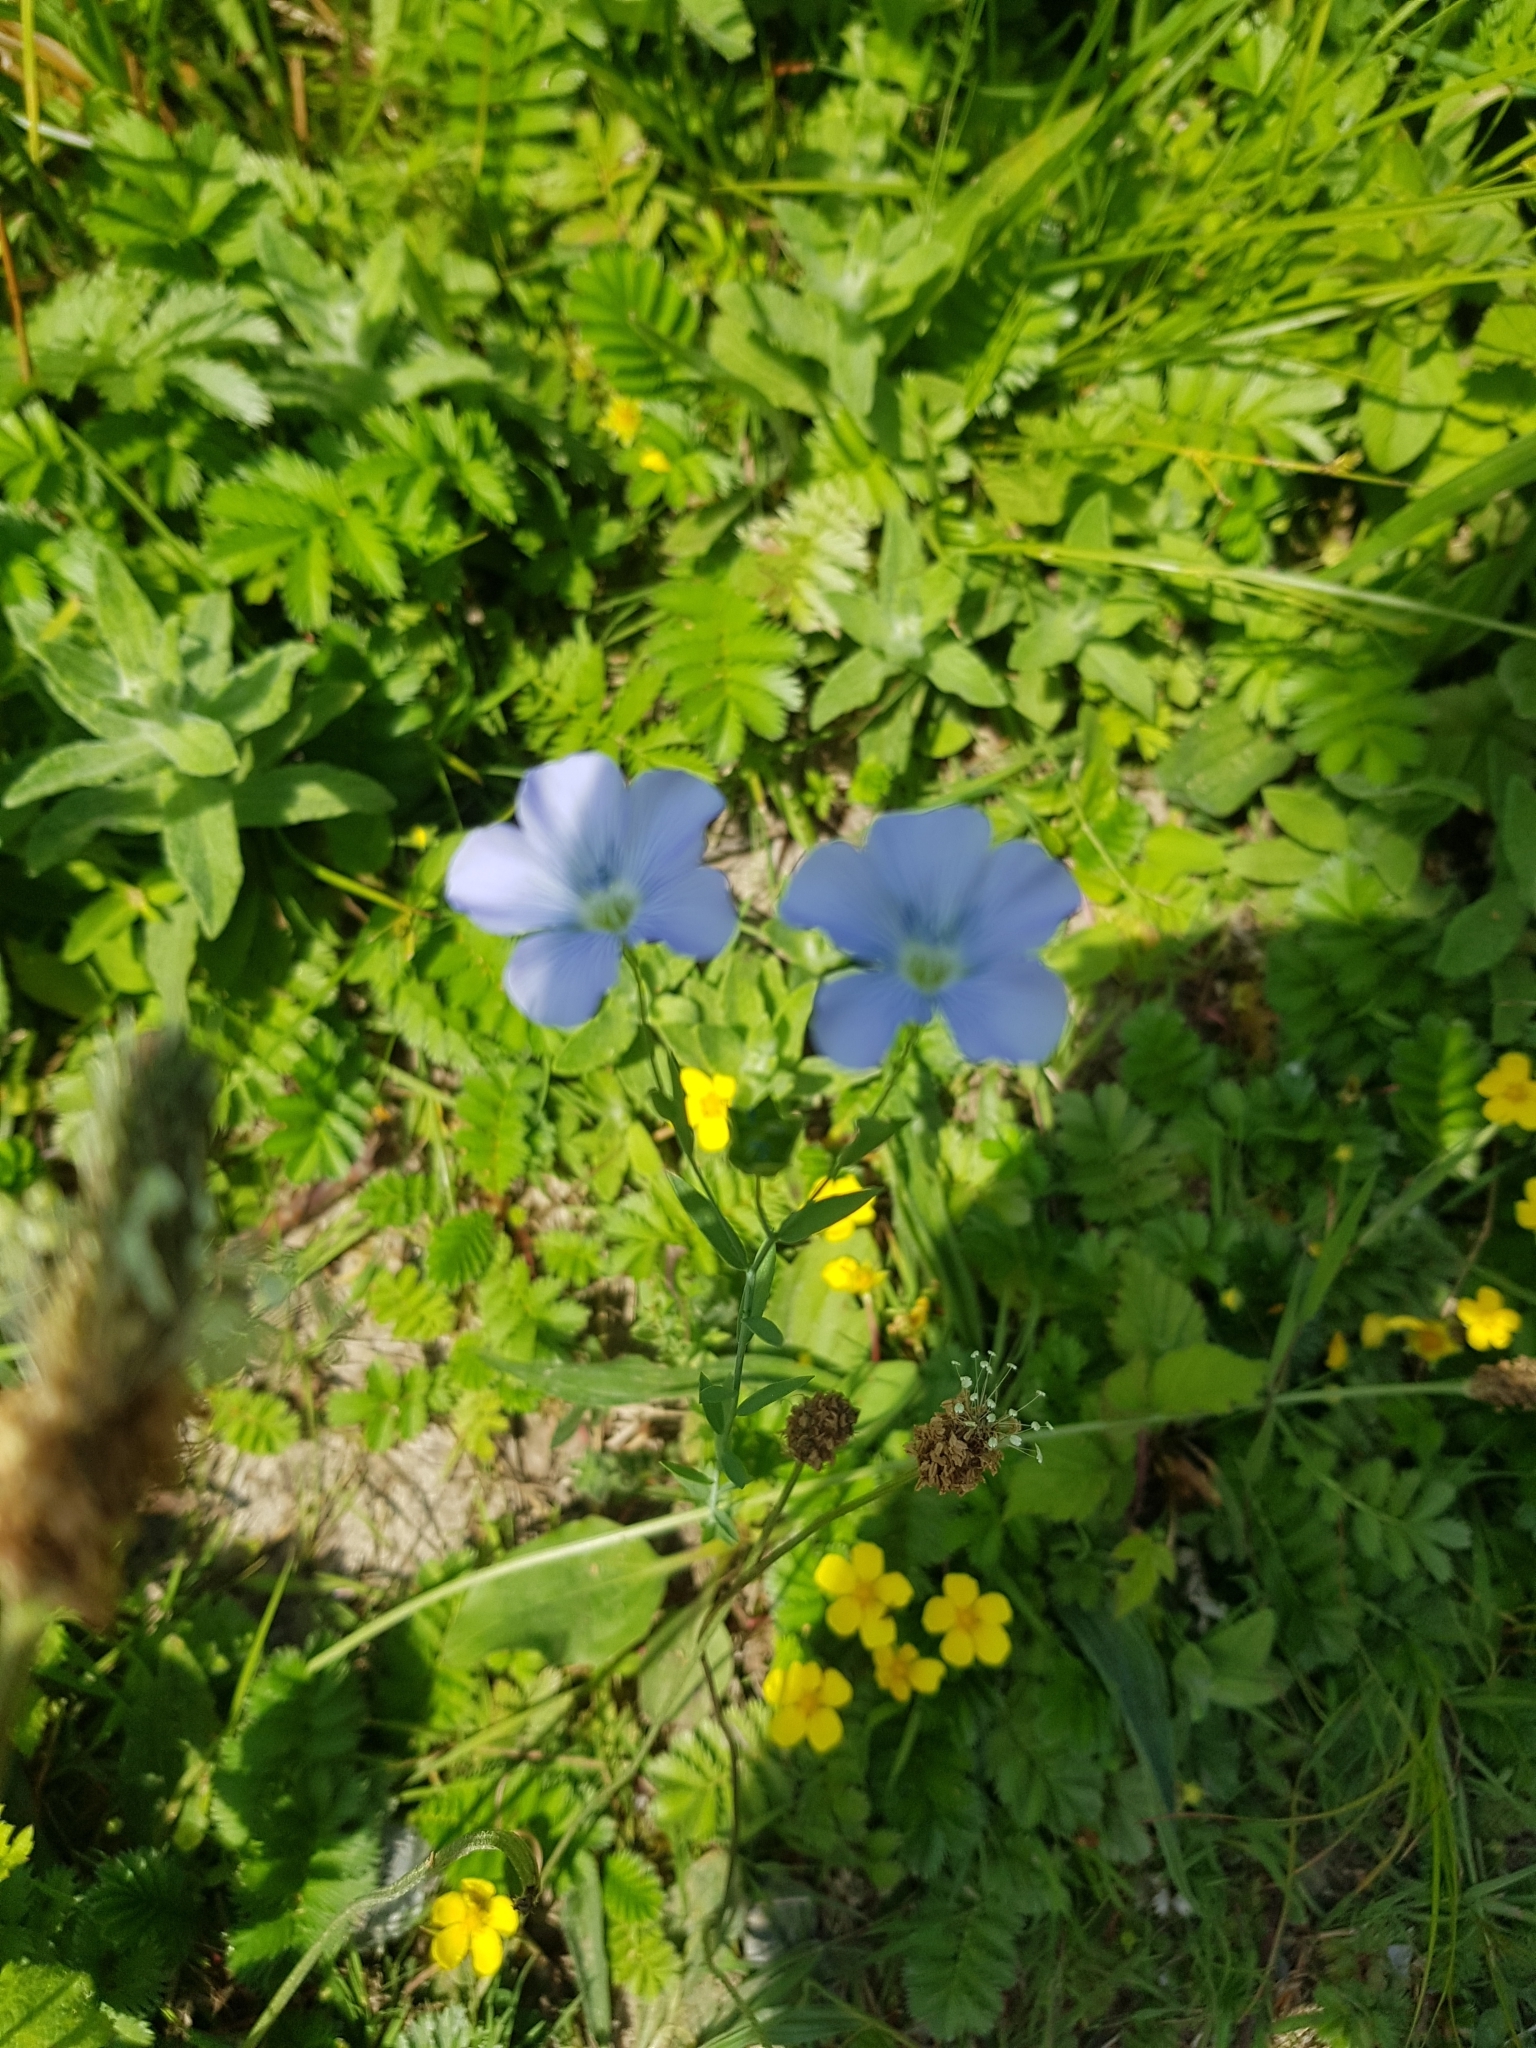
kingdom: Plantae
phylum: Tracheophyta
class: Magnoliopsida
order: Malpighiales
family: Linaceae
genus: Linum
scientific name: Linum usitatissimum
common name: Flax
